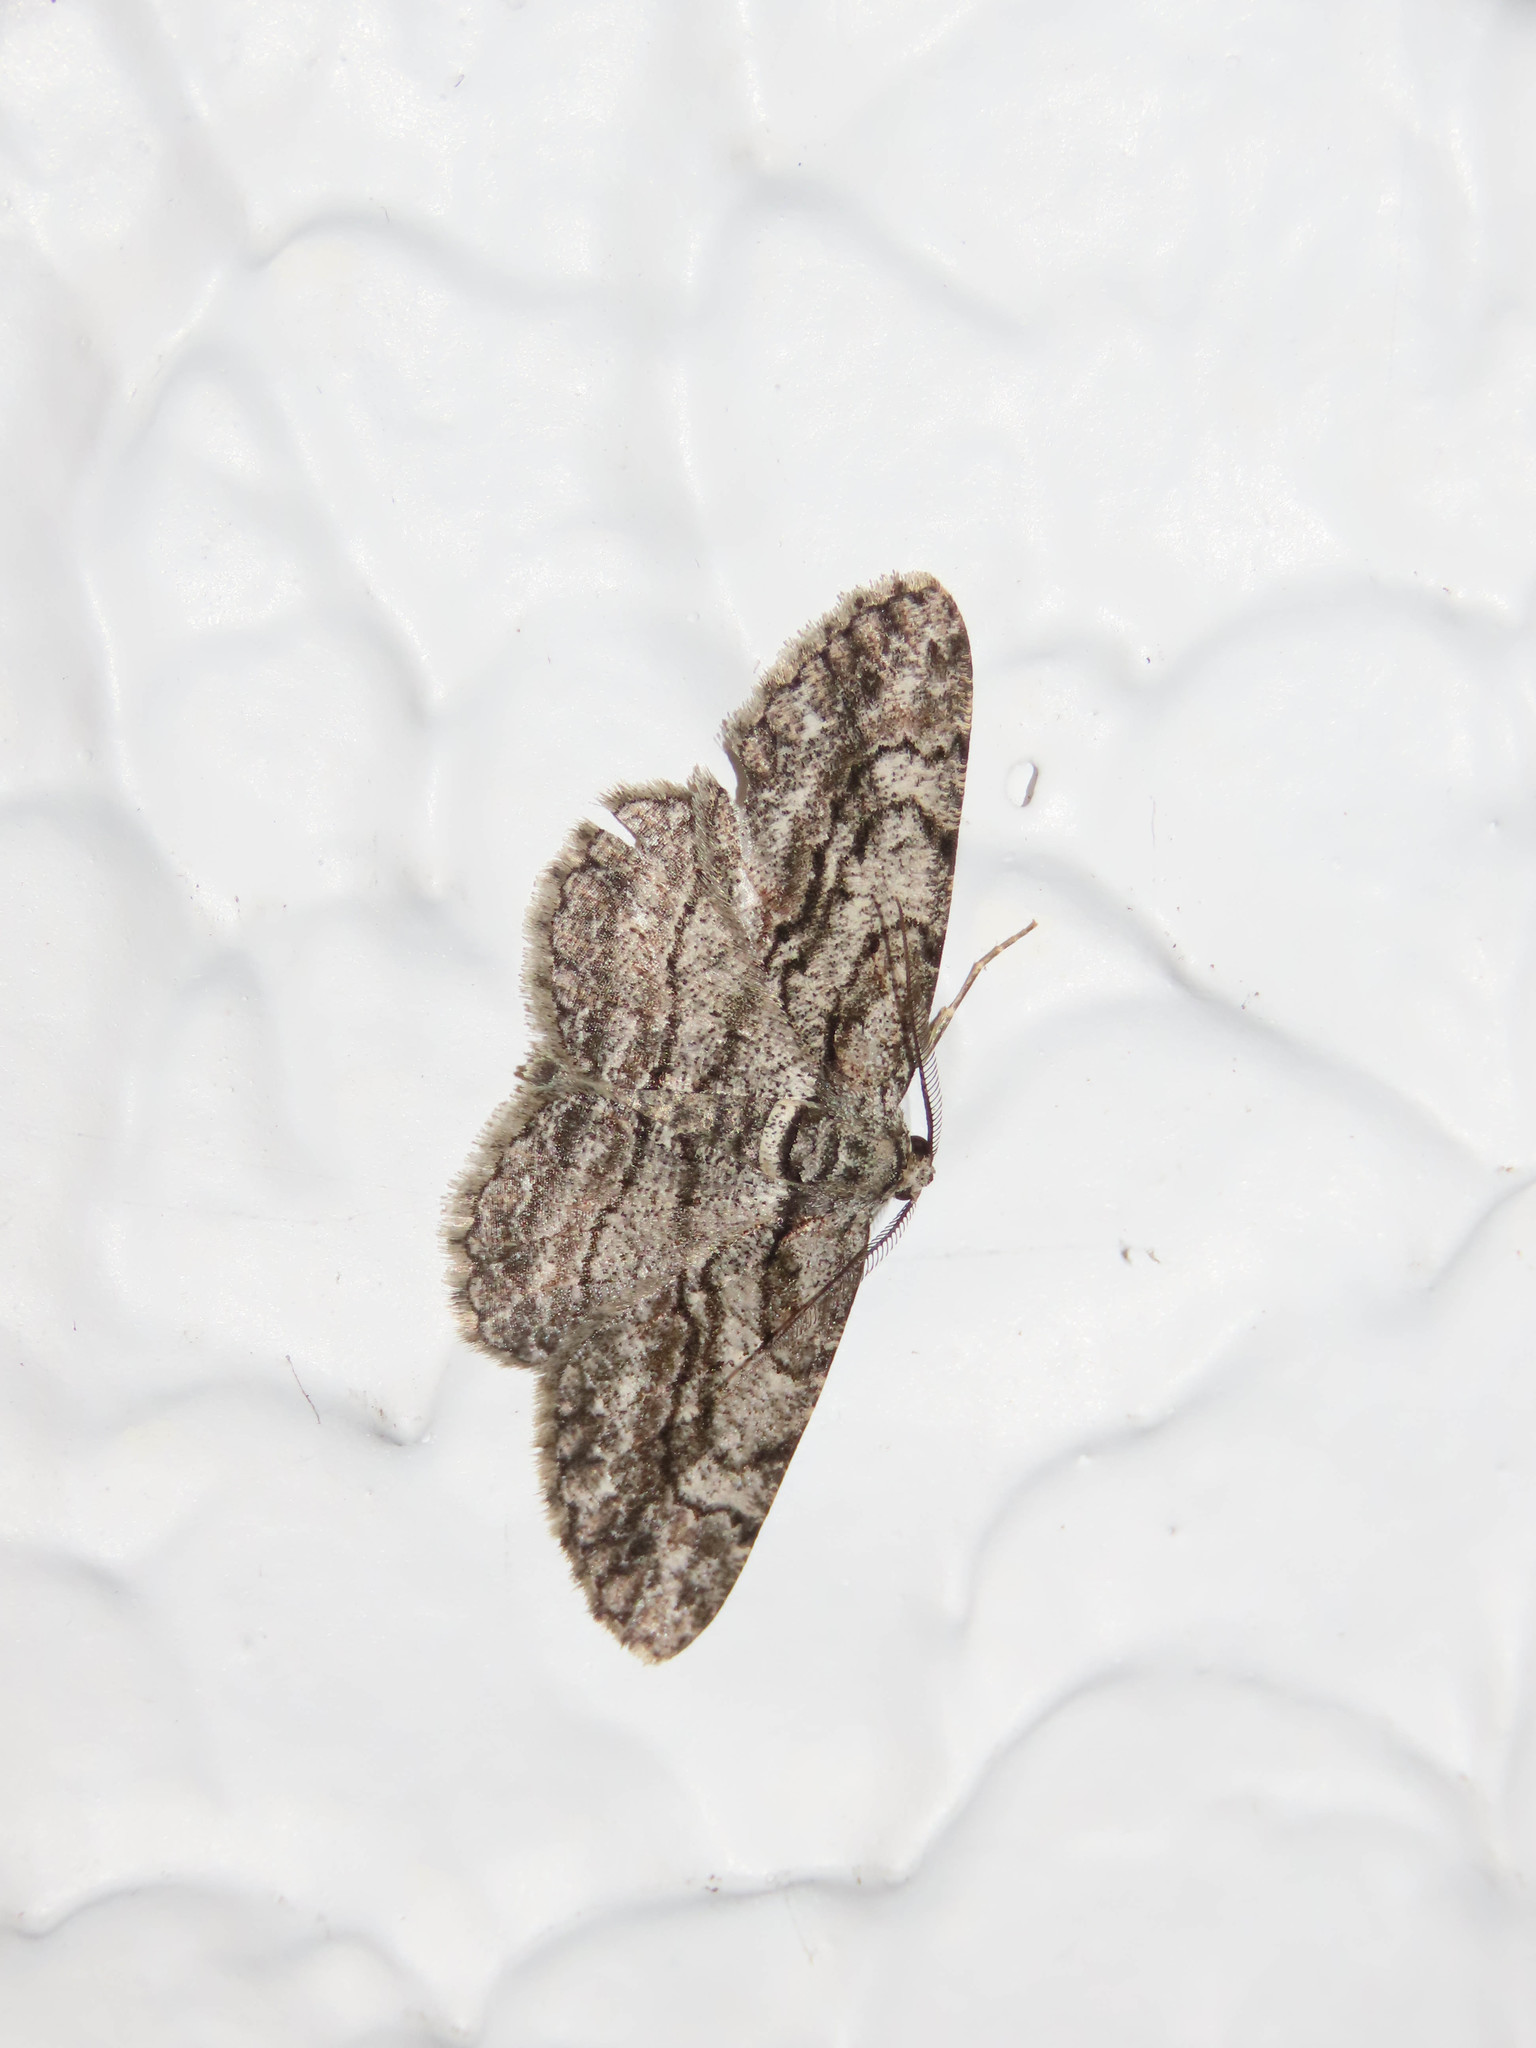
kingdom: Animalia
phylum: Arthropoda
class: Insecta
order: Lepidoptera
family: Geometridae
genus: Anavitrinella
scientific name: Anavitrinella pampinaria
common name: Common gray
